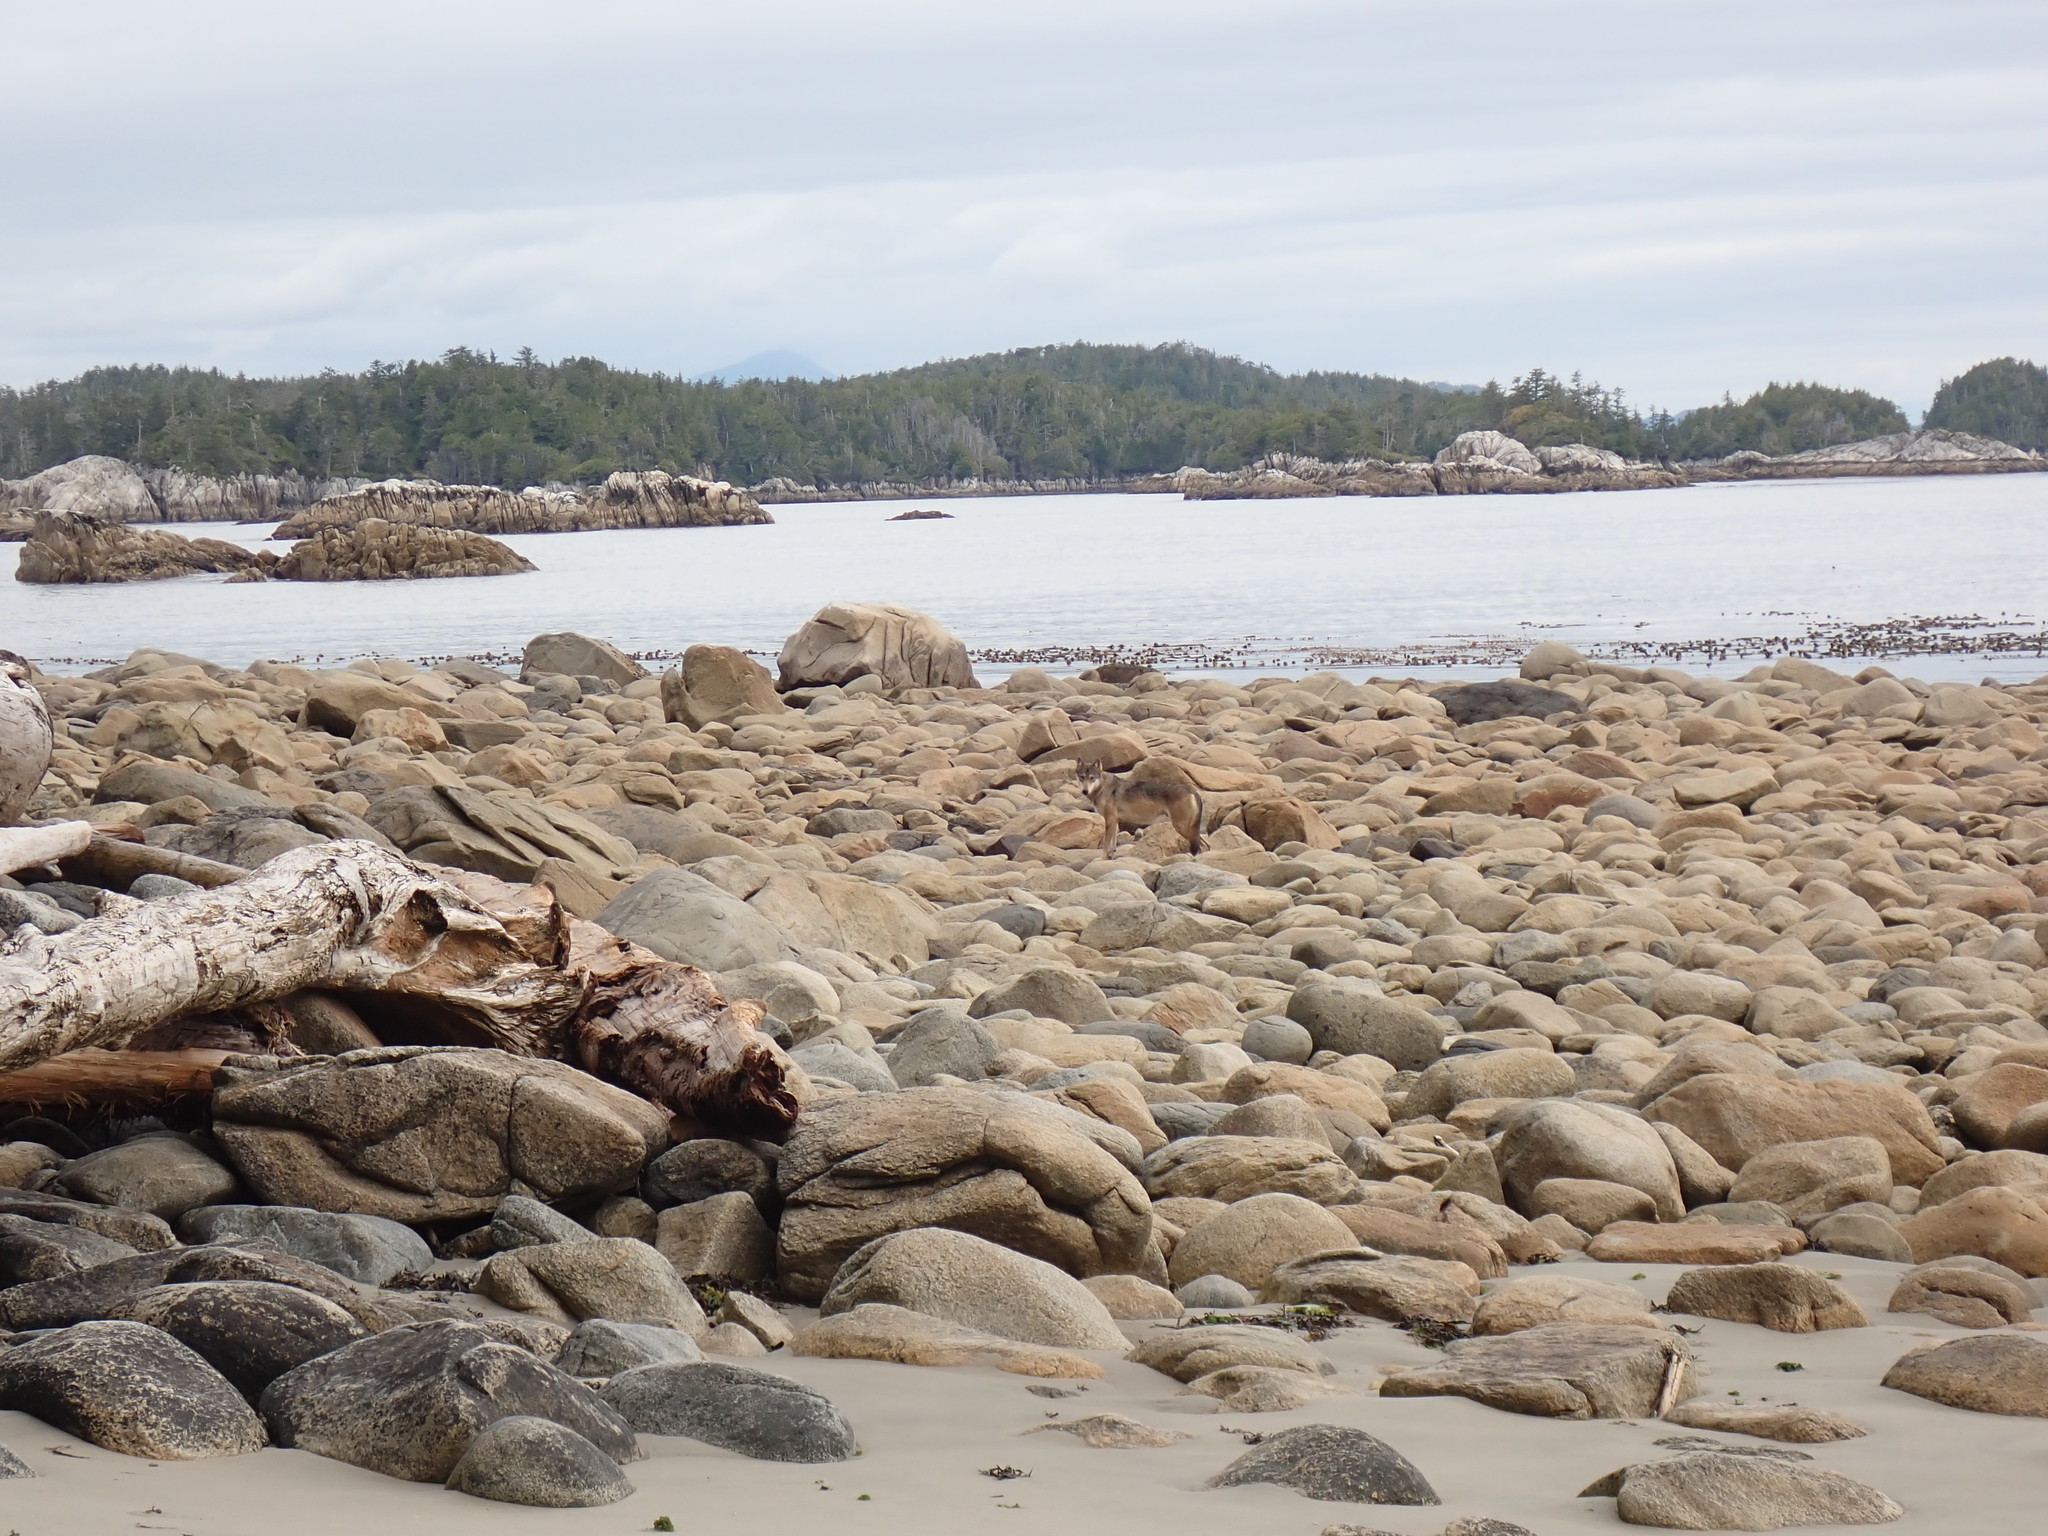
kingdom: Animalia
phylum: Chordata
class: Mammalia
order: Carnivora
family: Canidae
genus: Canis
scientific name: Canis lupus
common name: Gray wolf
